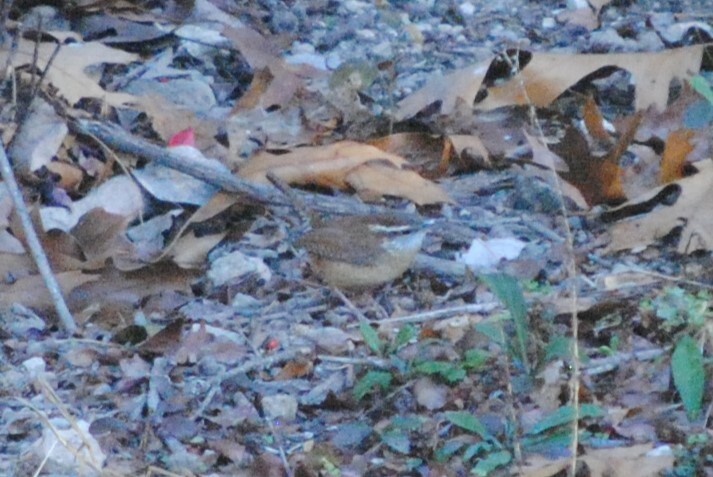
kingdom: Animalia
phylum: Chordata
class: Aves
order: Passeriformes
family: Troglodytidae
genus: Thryothorus
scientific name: Thryothorus ludovicianus
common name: Carolina wren
